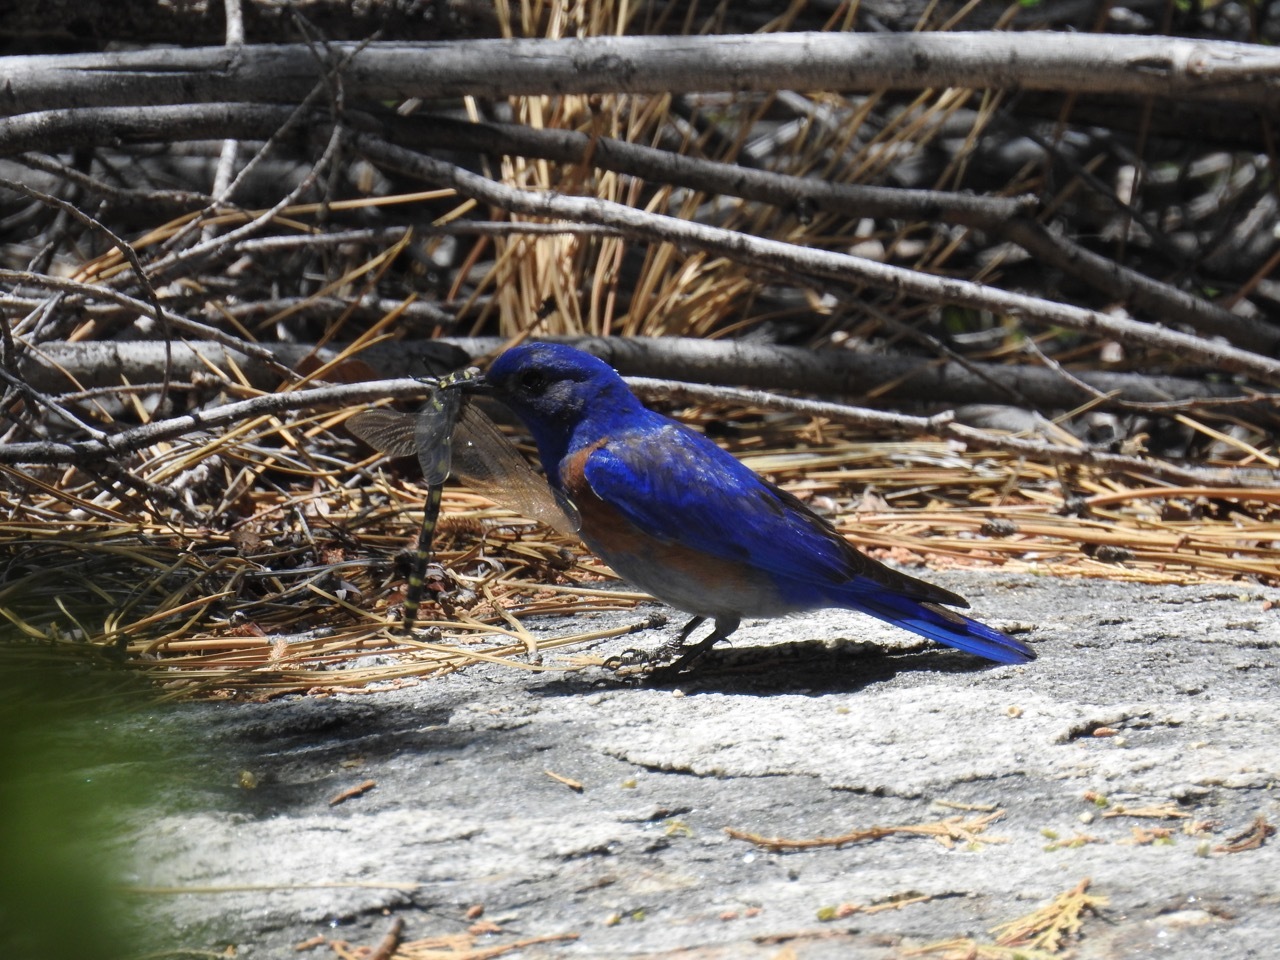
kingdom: Animalia
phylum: Chordata
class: Aves
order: Passeriformes
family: Turdidae
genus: Sialia
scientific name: Sialia mexicana
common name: Western bluebird
